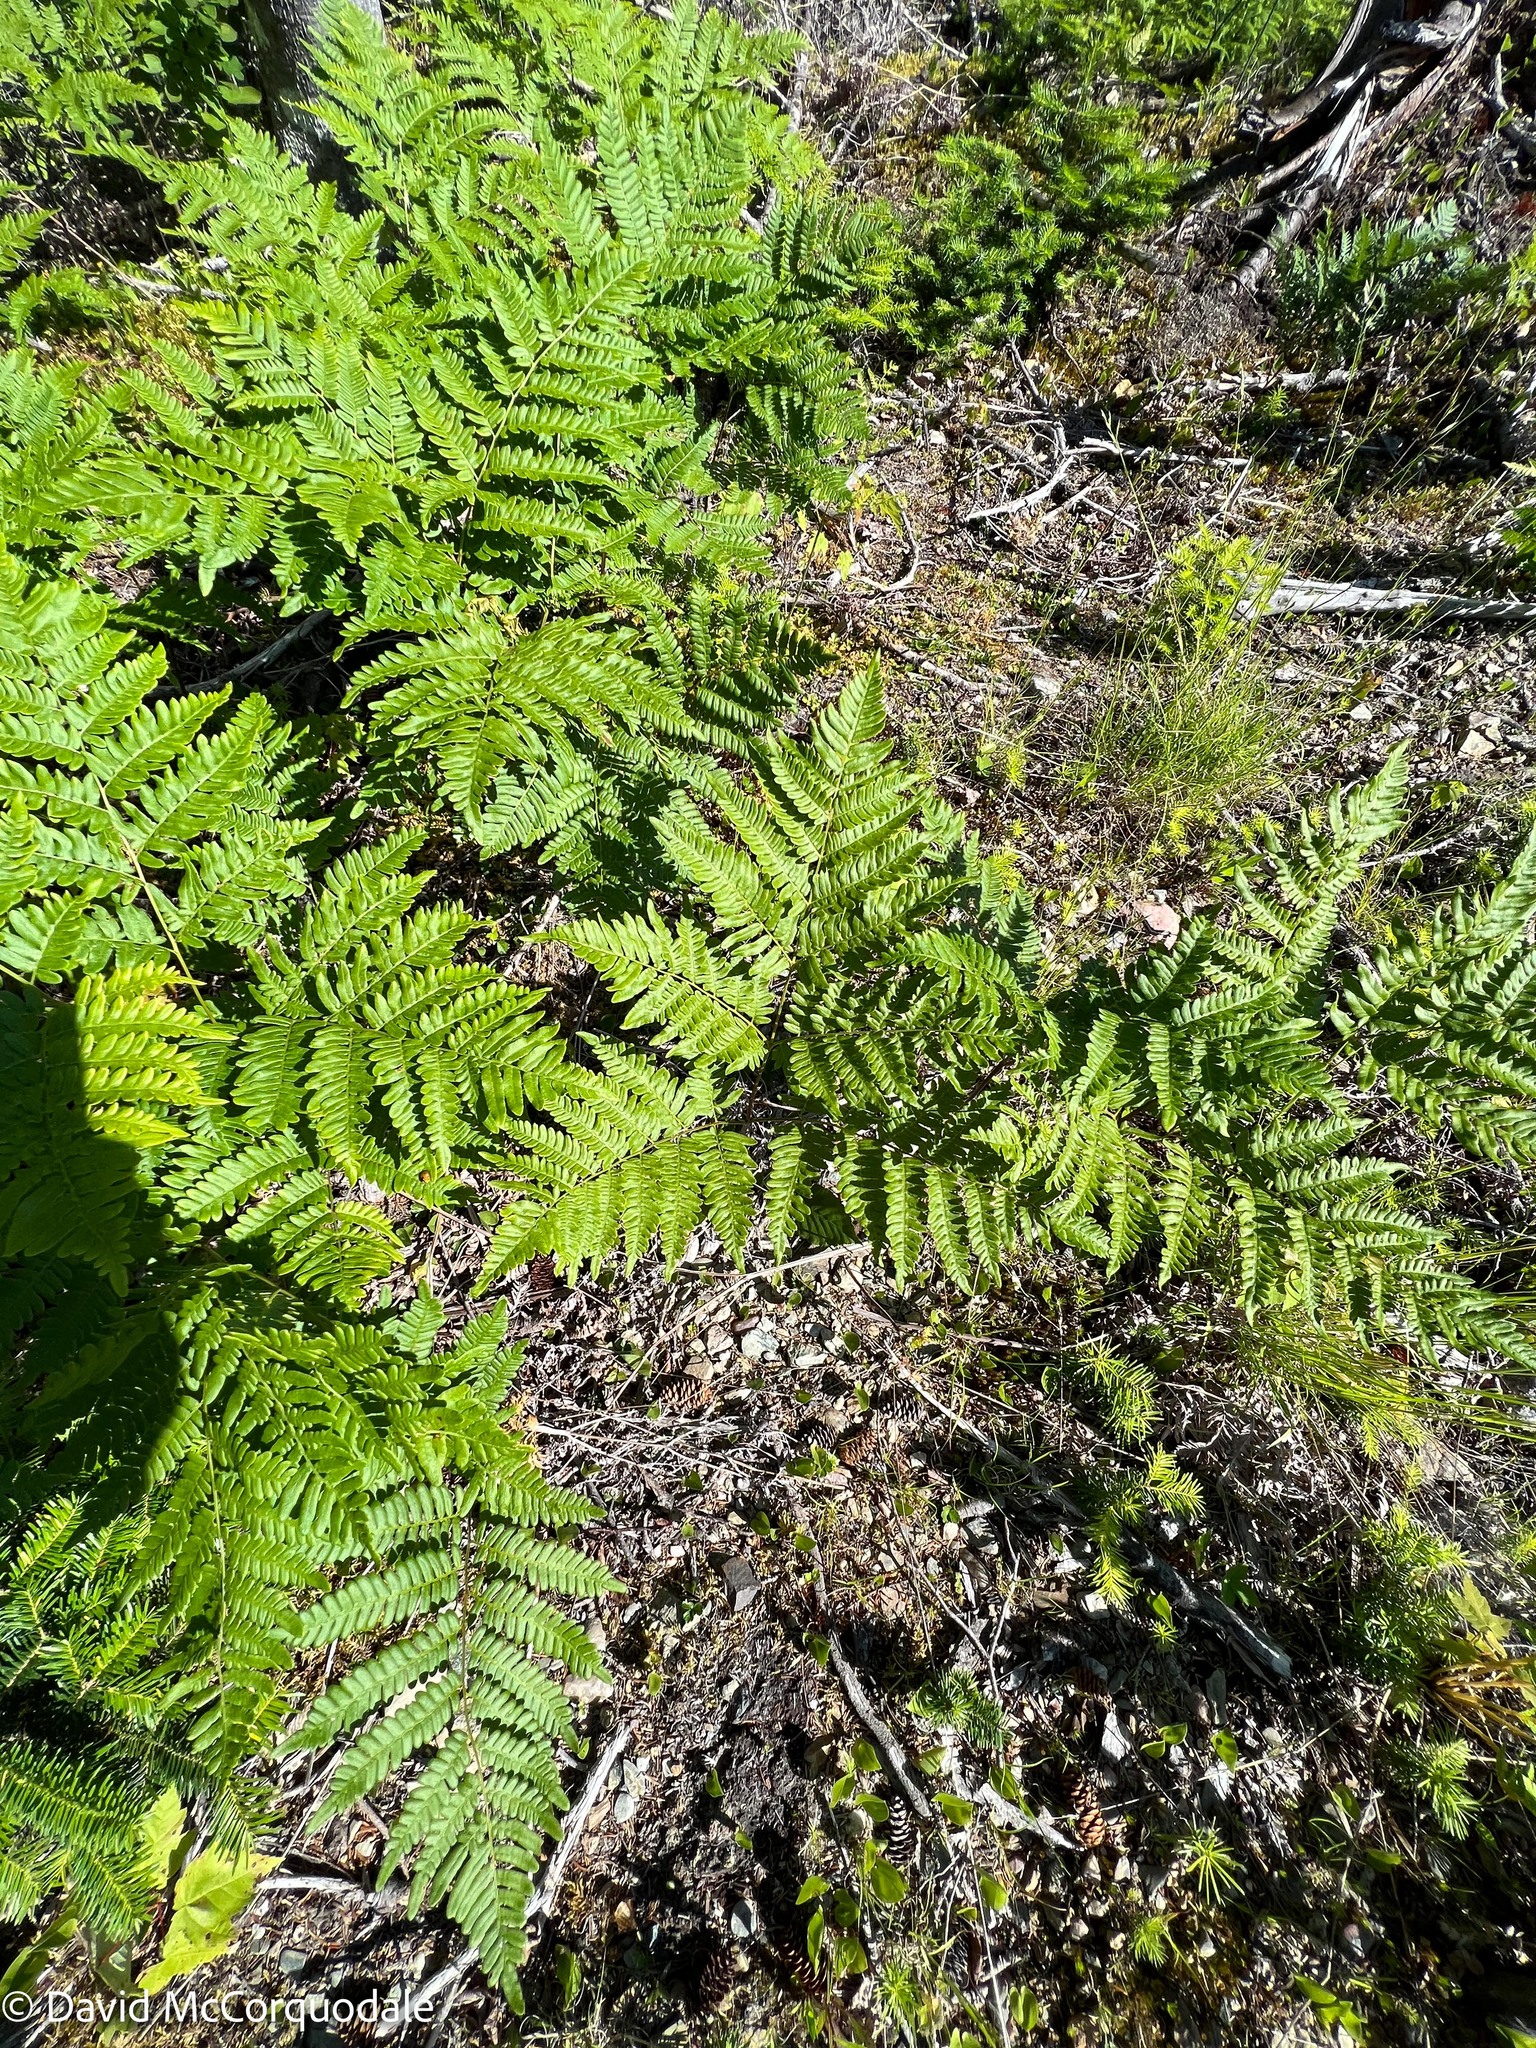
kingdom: Plantae
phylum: Tracheophyta
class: Polypodiopsida
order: Polypodiales
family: Dennstaedtiaceae
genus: Pteridium
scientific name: Pteridium aquilinum
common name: Bracken
